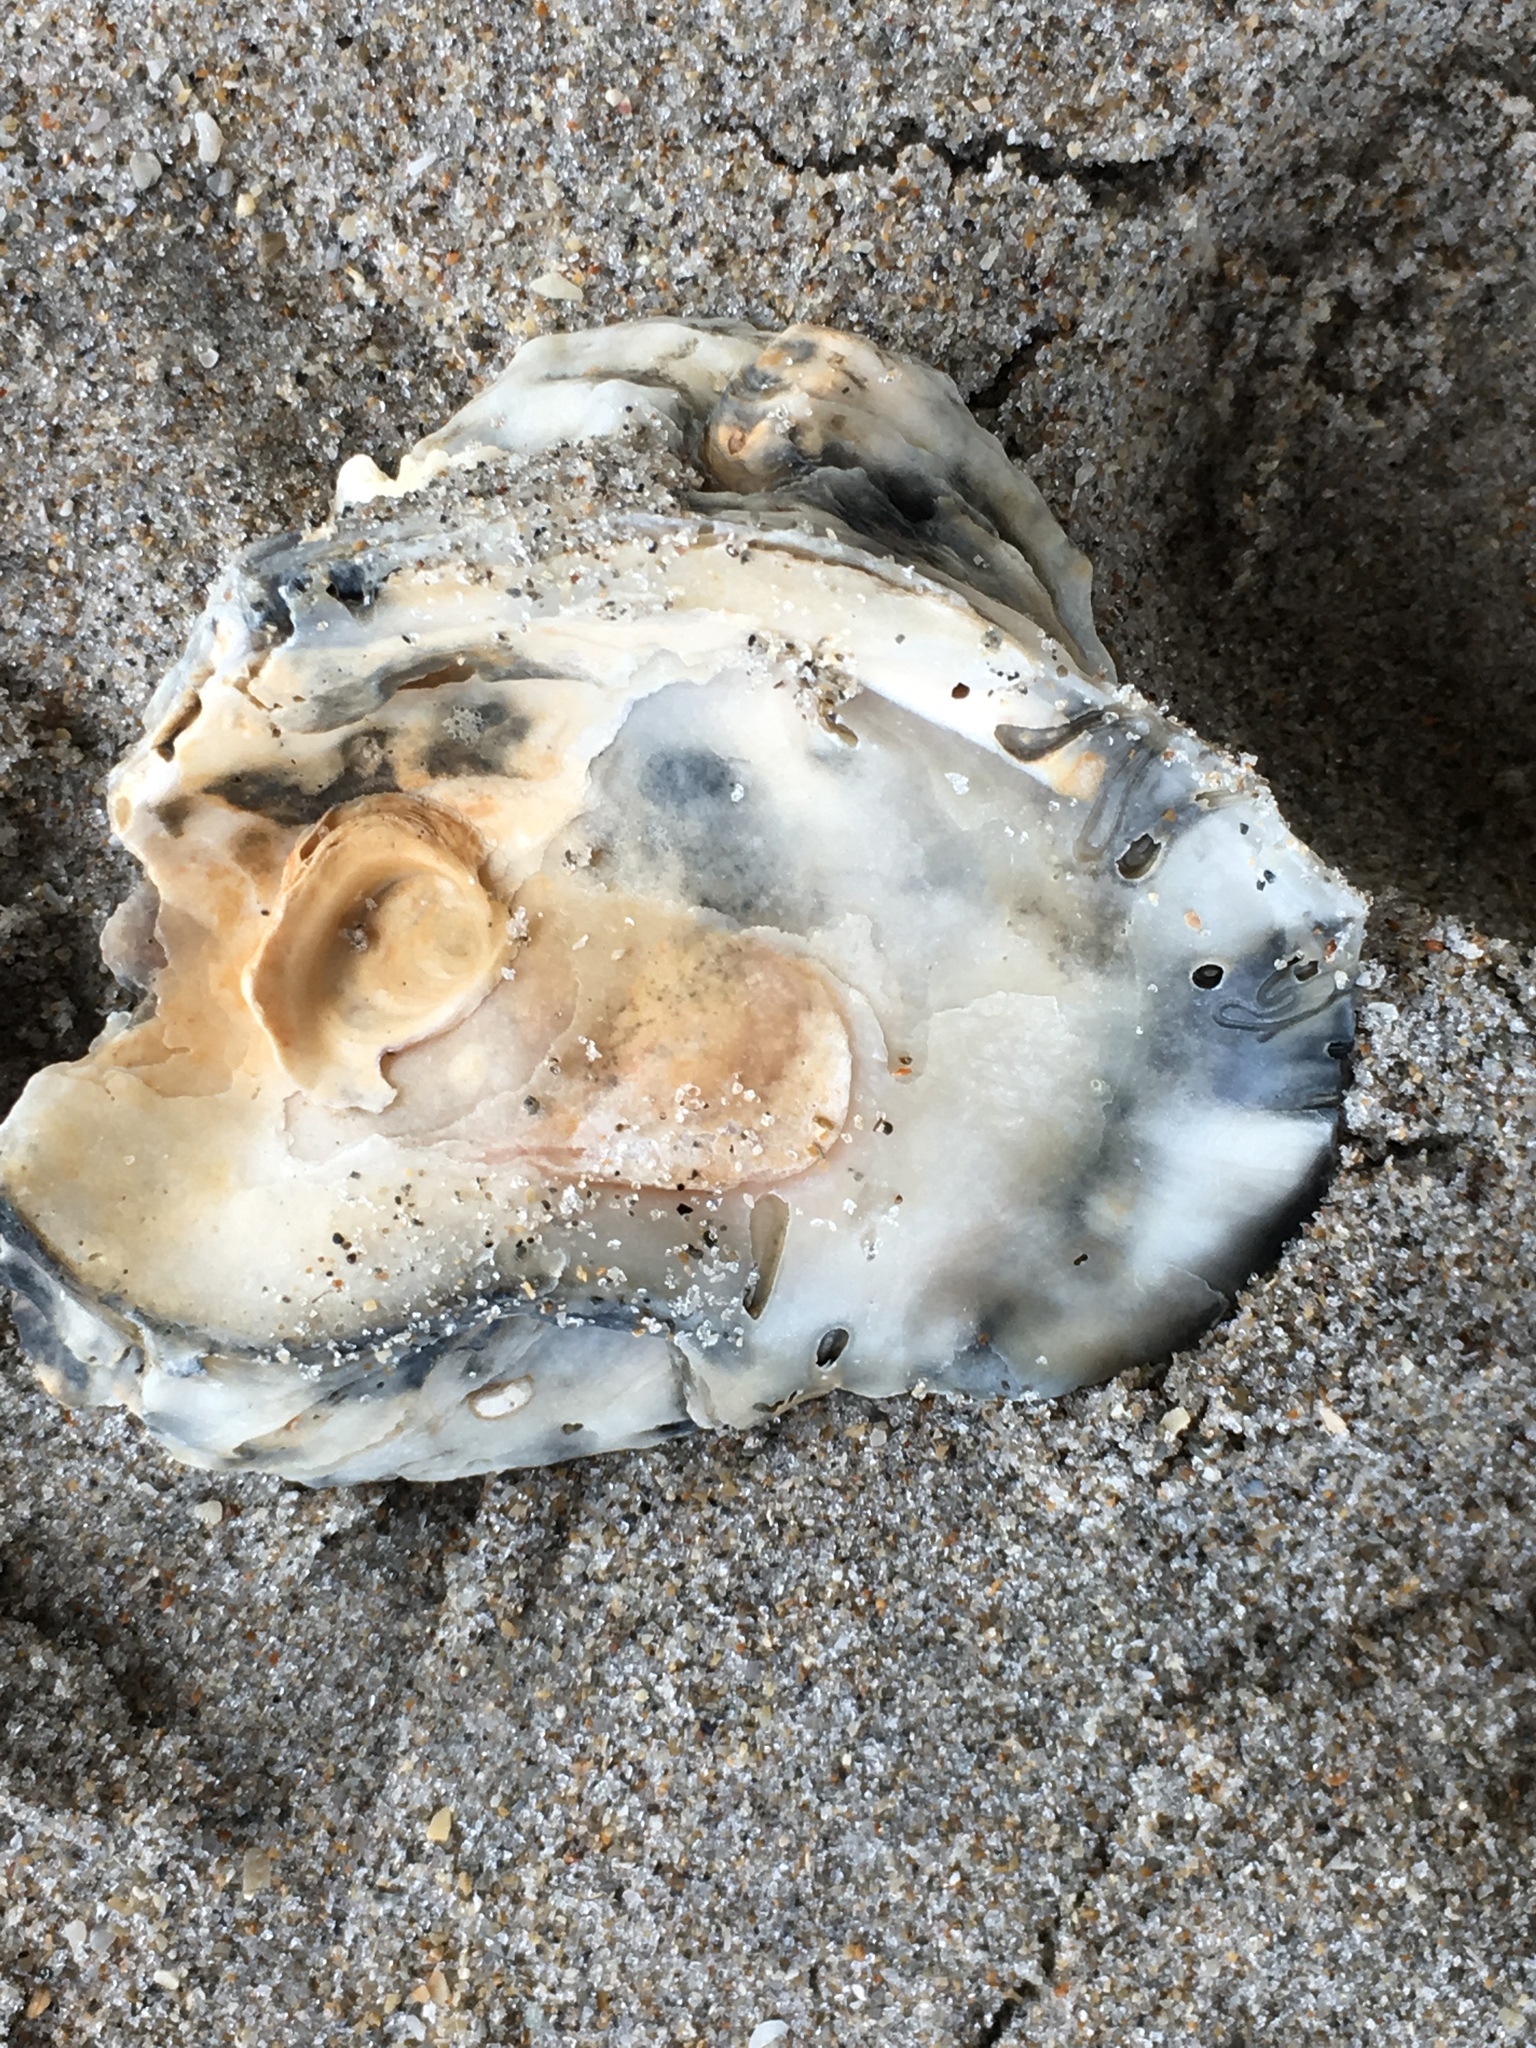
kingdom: Animalia
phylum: Mollusca
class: Bivalvia
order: Ostreida
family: Ostreidae
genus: Crassostrea
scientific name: Crassostrea virginica
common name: American oyster
